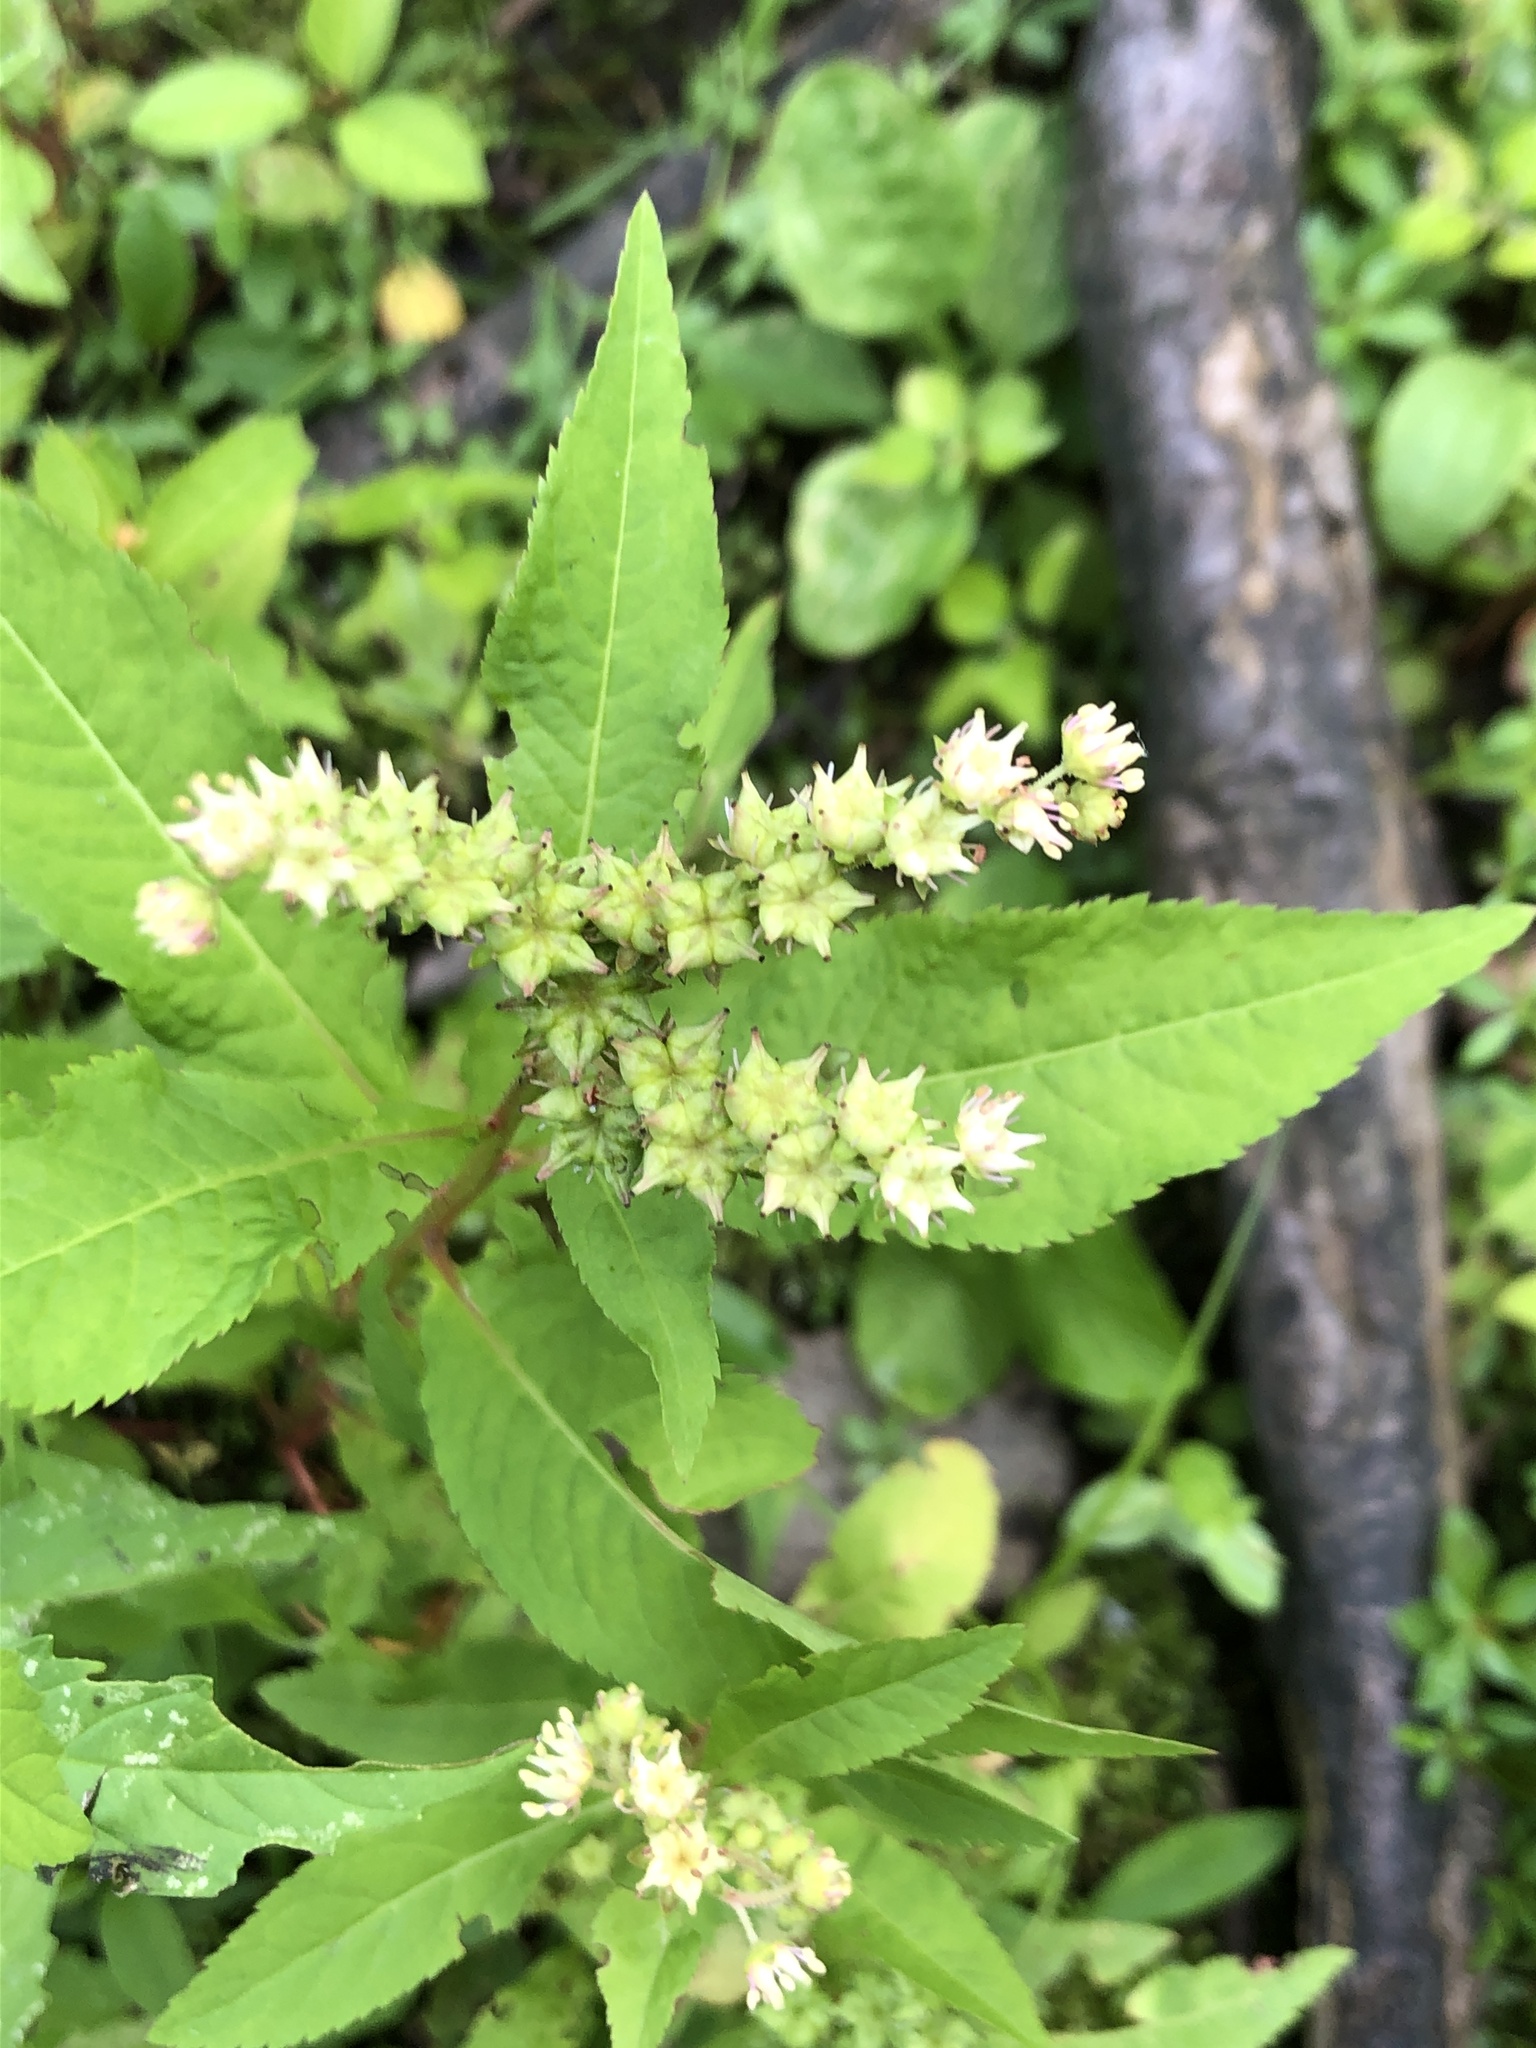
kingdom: Plantae
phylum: Tracheophyta
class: Magnoliopsida
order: Saxifragales
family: Penthoraceae
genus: Penthorum
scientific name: Penthorum sedoides
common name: Ditch stonecrop
